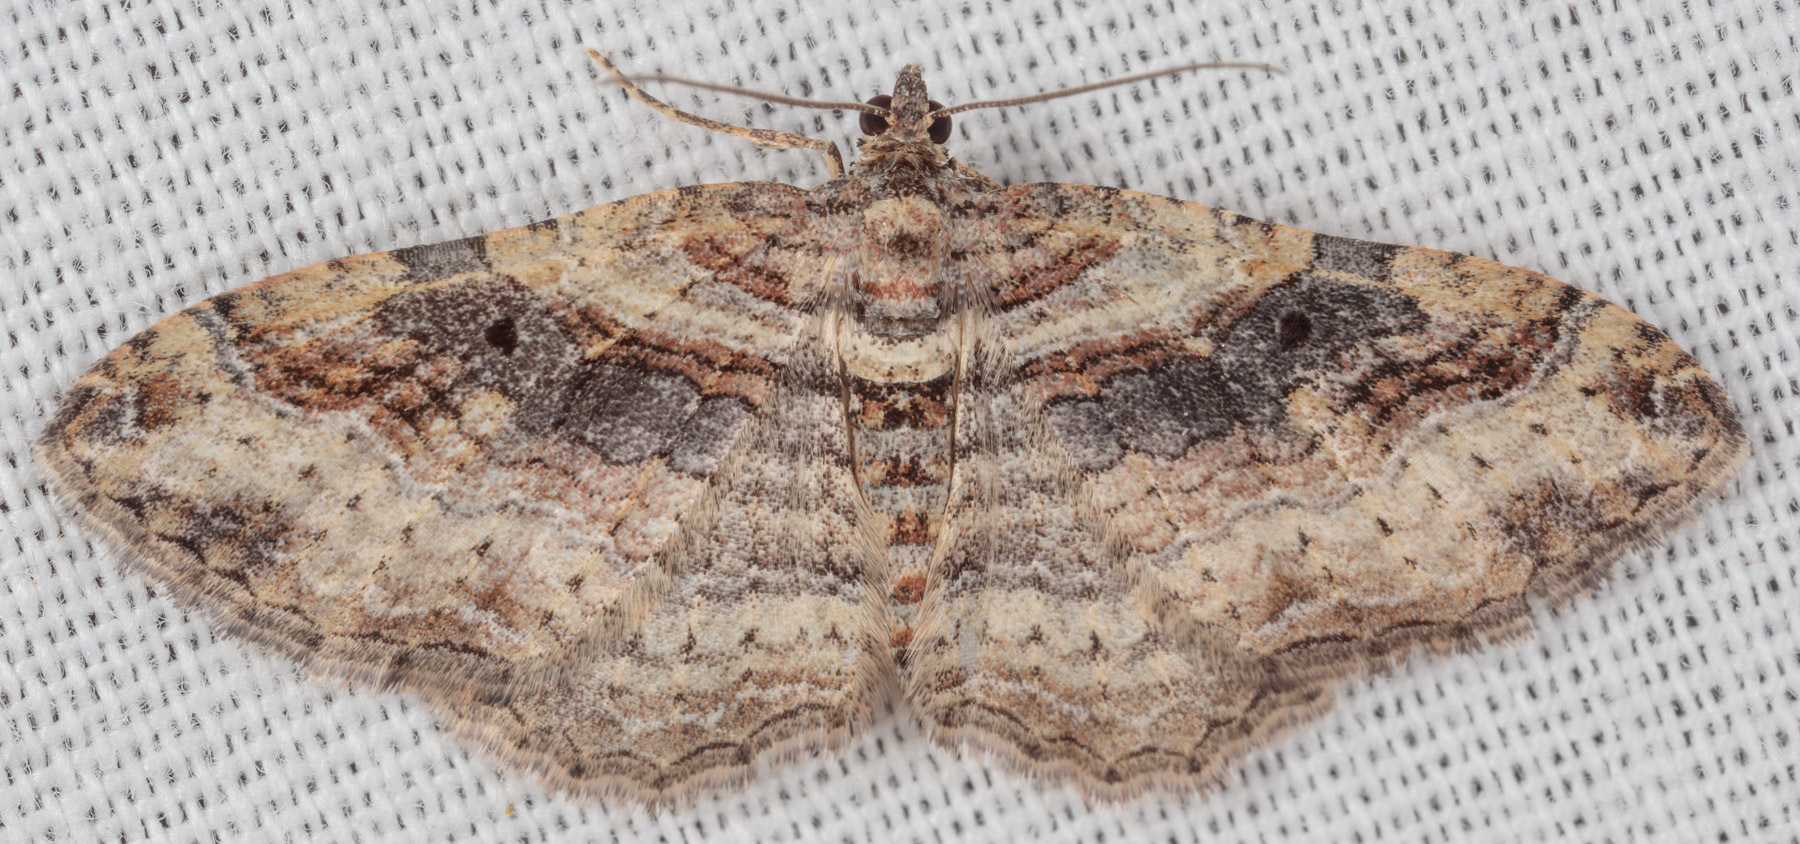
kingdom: Animalia
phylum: Arthropoda
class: Insecta
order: Lepidoptera
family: Geometridae
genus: Costaconvexa
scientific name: Costaconvexa centrostrigaria
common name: Bent-line carpet
